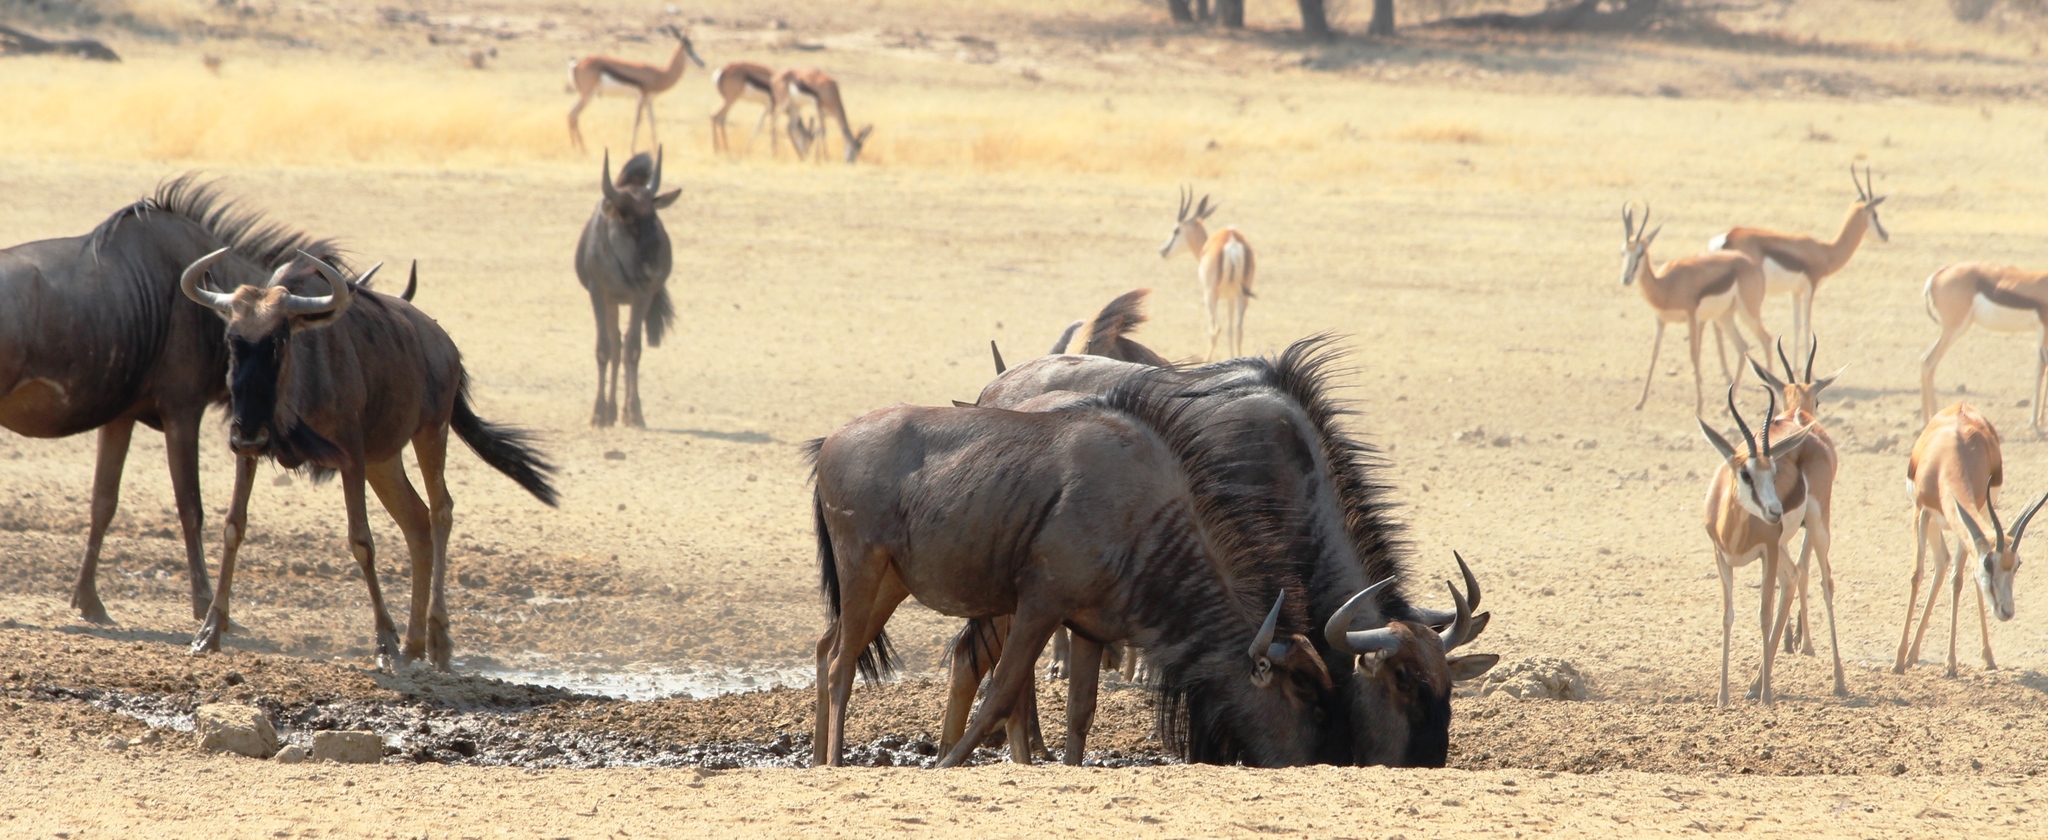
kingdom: Animalia
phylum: Chordata
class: Mammalia
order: Artiodactyla
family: Bovidae
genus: Connochaetes
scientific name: Connochaetes taurinus
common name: Blue wildebeest
